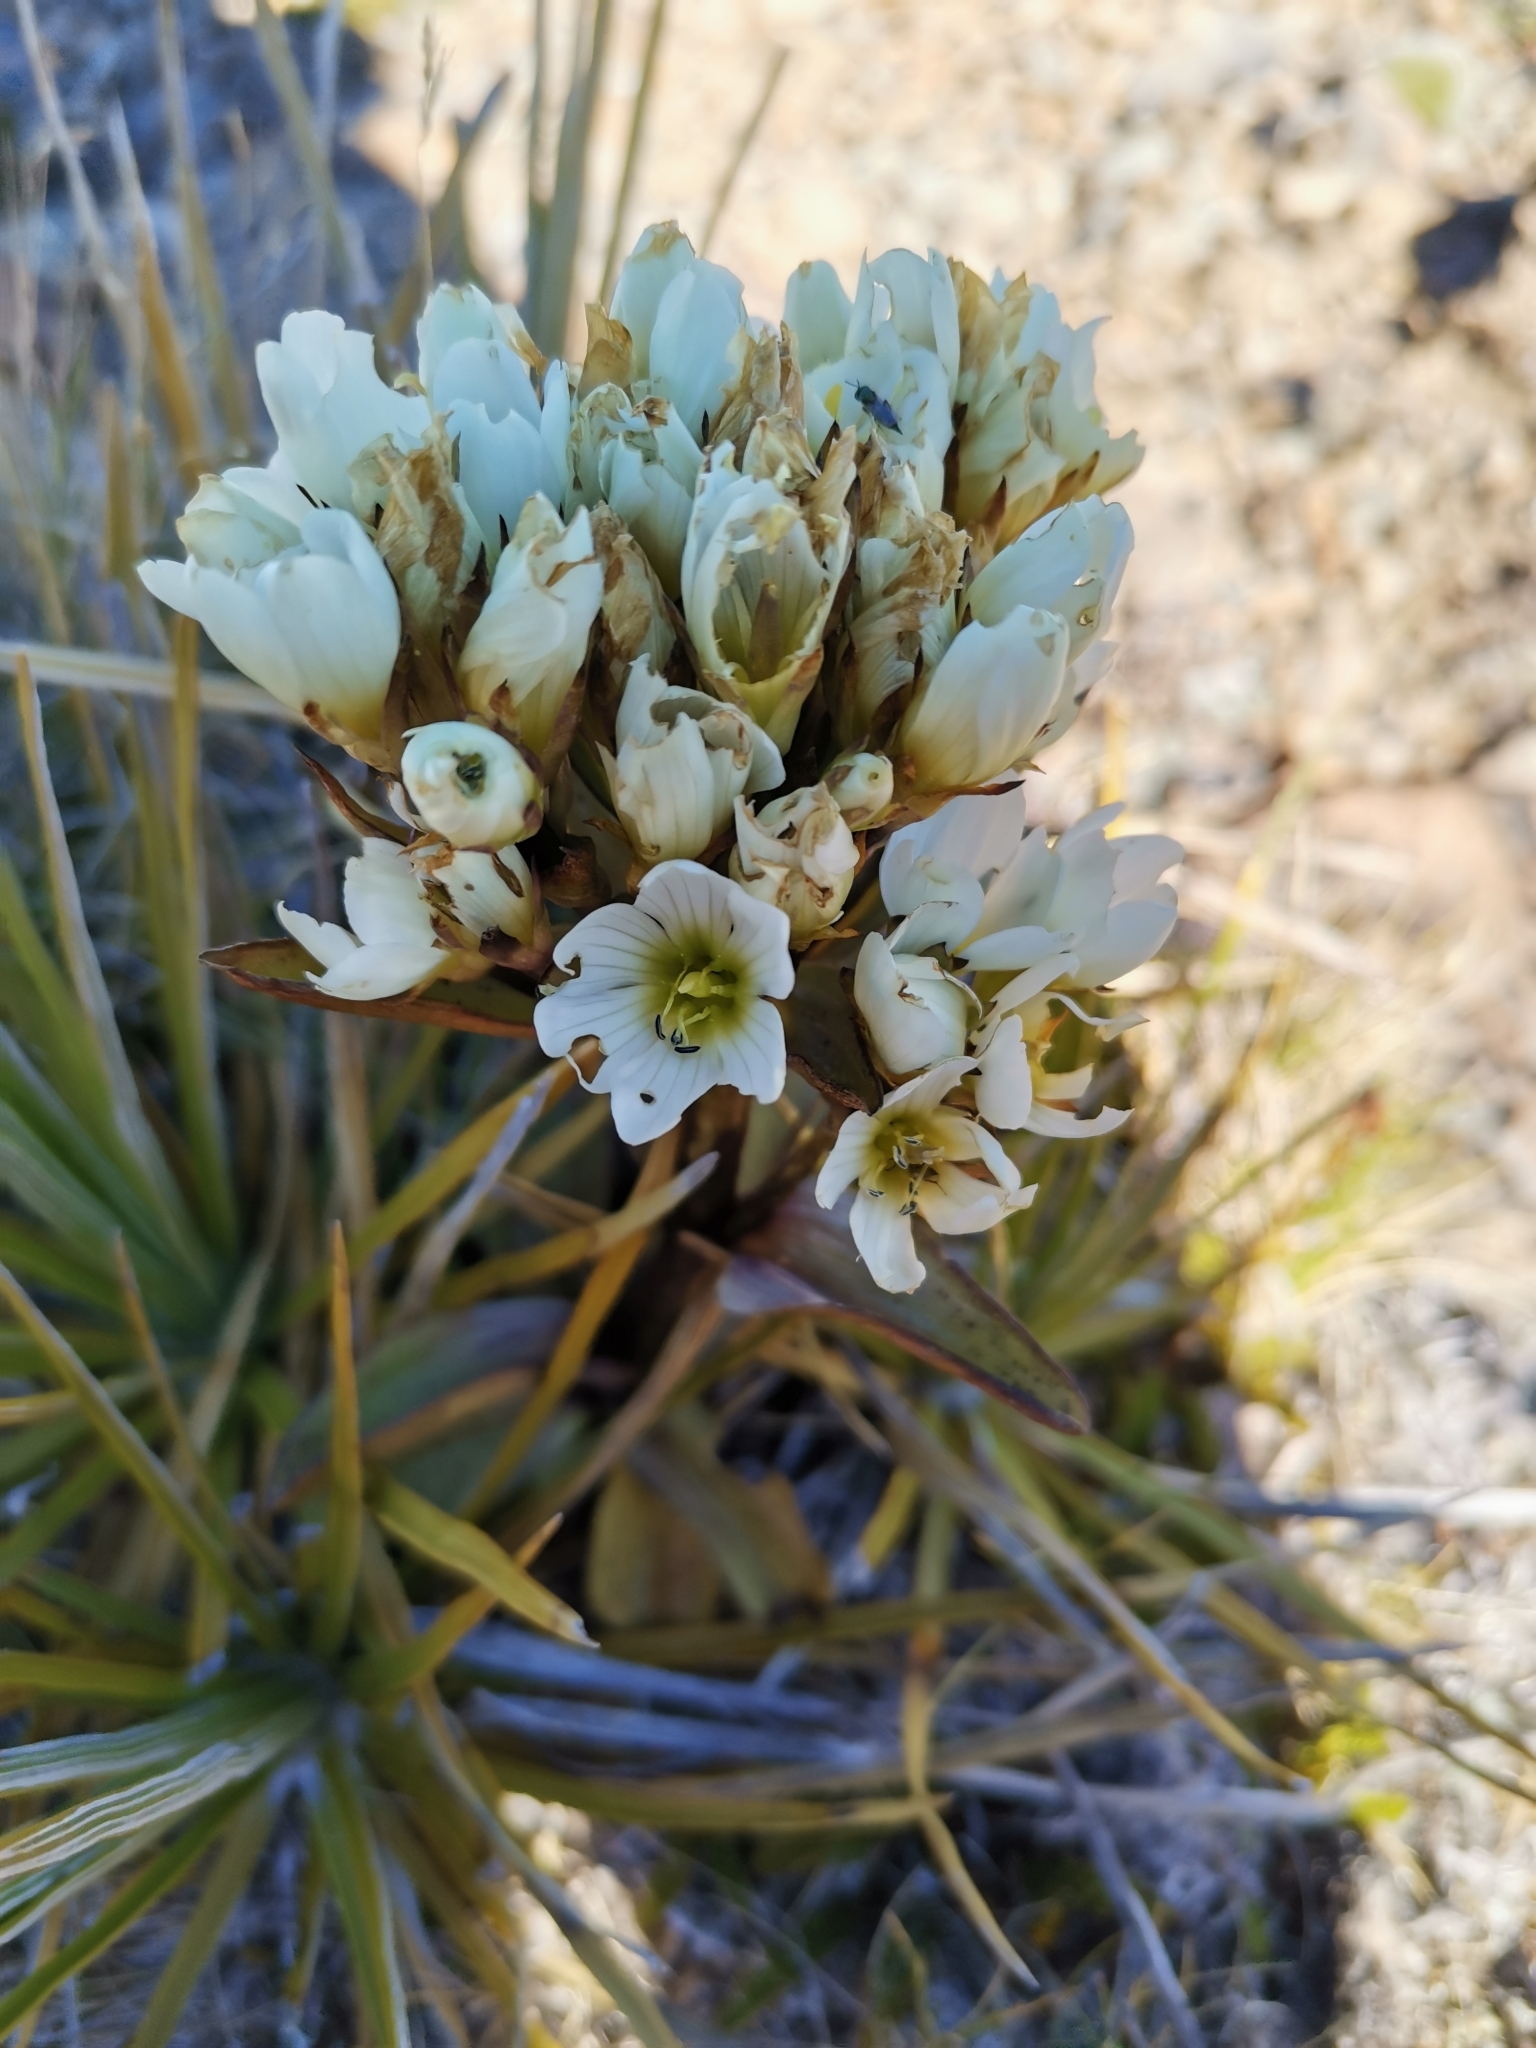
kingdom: Plantae
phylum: Tracheophyta
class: Magnoliopsida
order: Gentianales
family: Gentianaceae
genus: Gentianella
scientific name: Gentianella corymbifera
